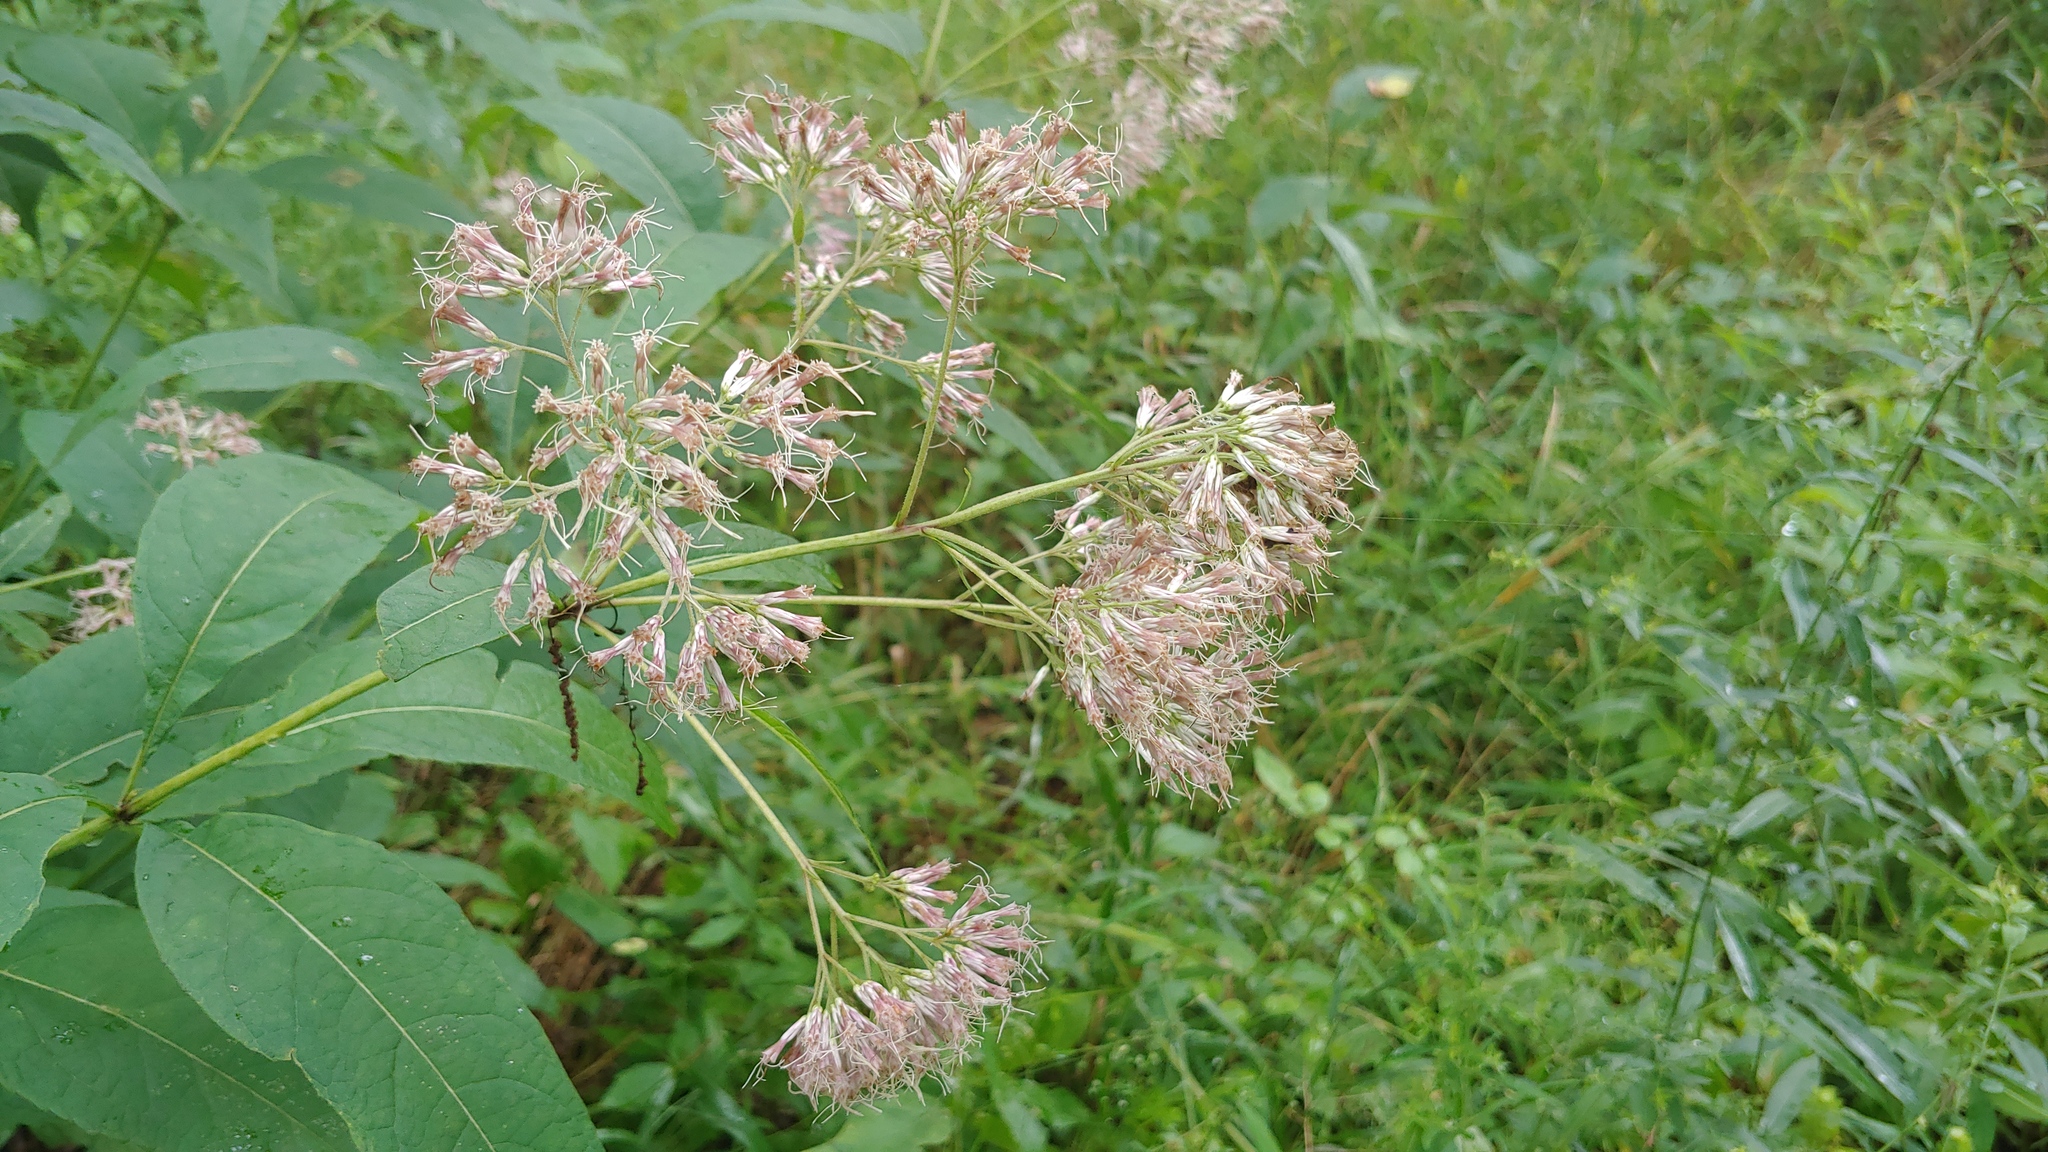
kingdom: Plantae
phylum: Tracheophyta
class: Magnoliopsida
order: Asterales
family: Asteraceae
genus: Eutrochium
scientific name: Eutrochium purpureum
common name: Gravelroot
